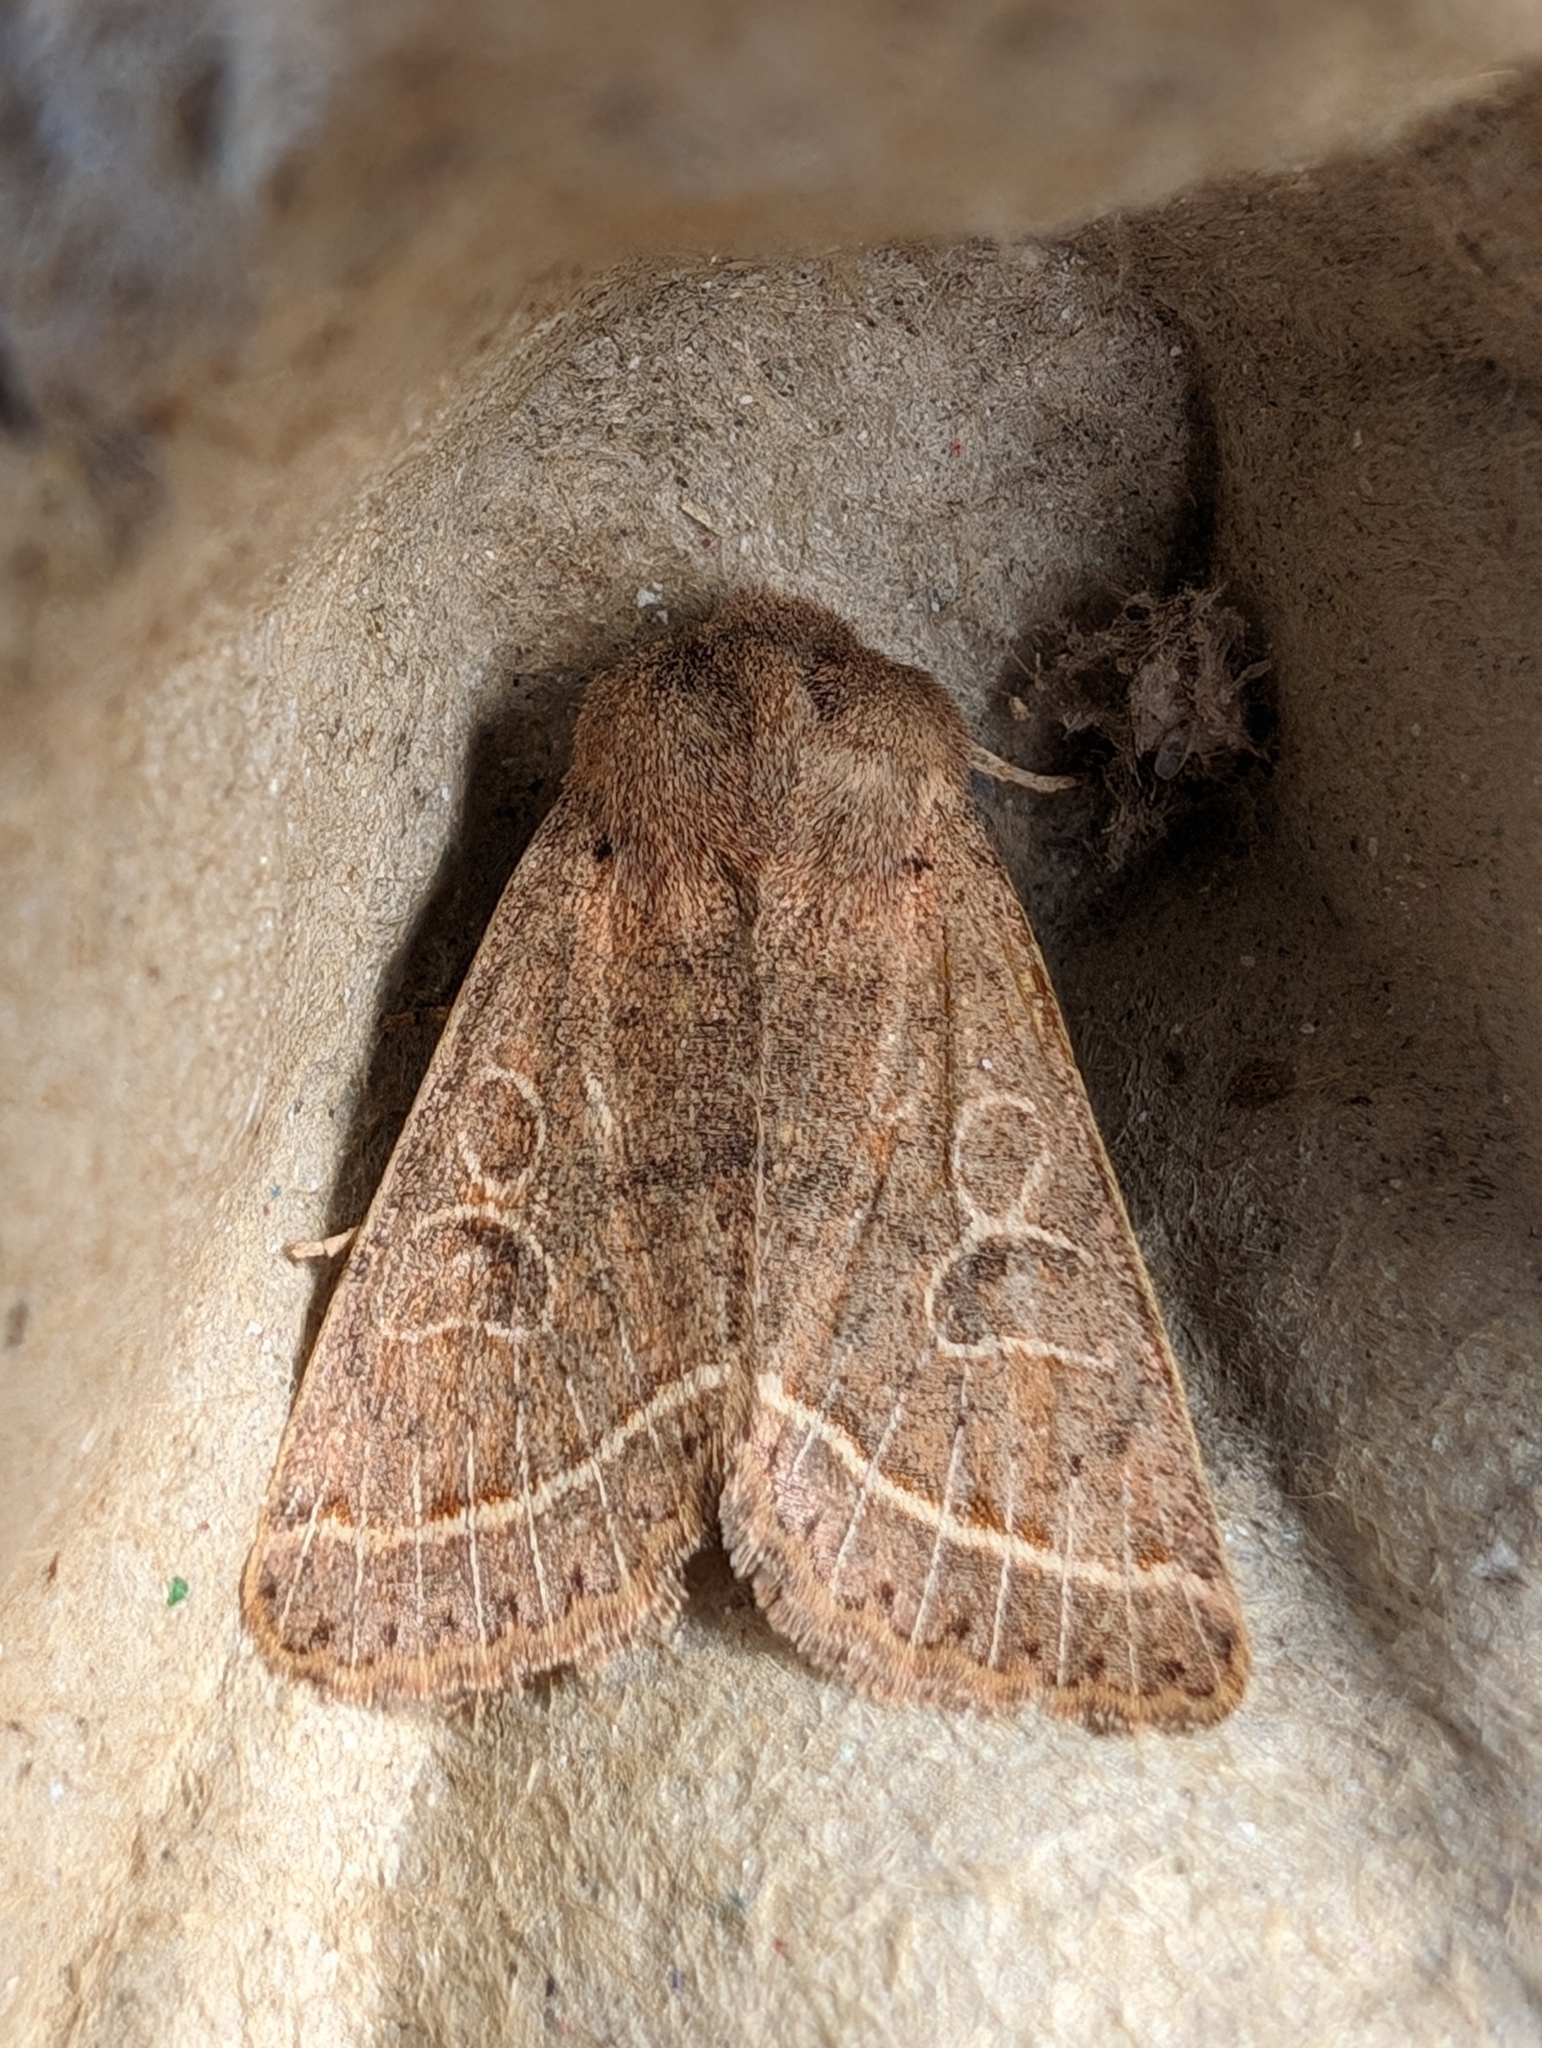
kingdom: Animalia
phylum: Arthropoda
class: Insecta
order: Lepidoptera
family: Noctuidae
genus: Orthosia
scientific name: Orthosia cerasi
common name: Common quaker
